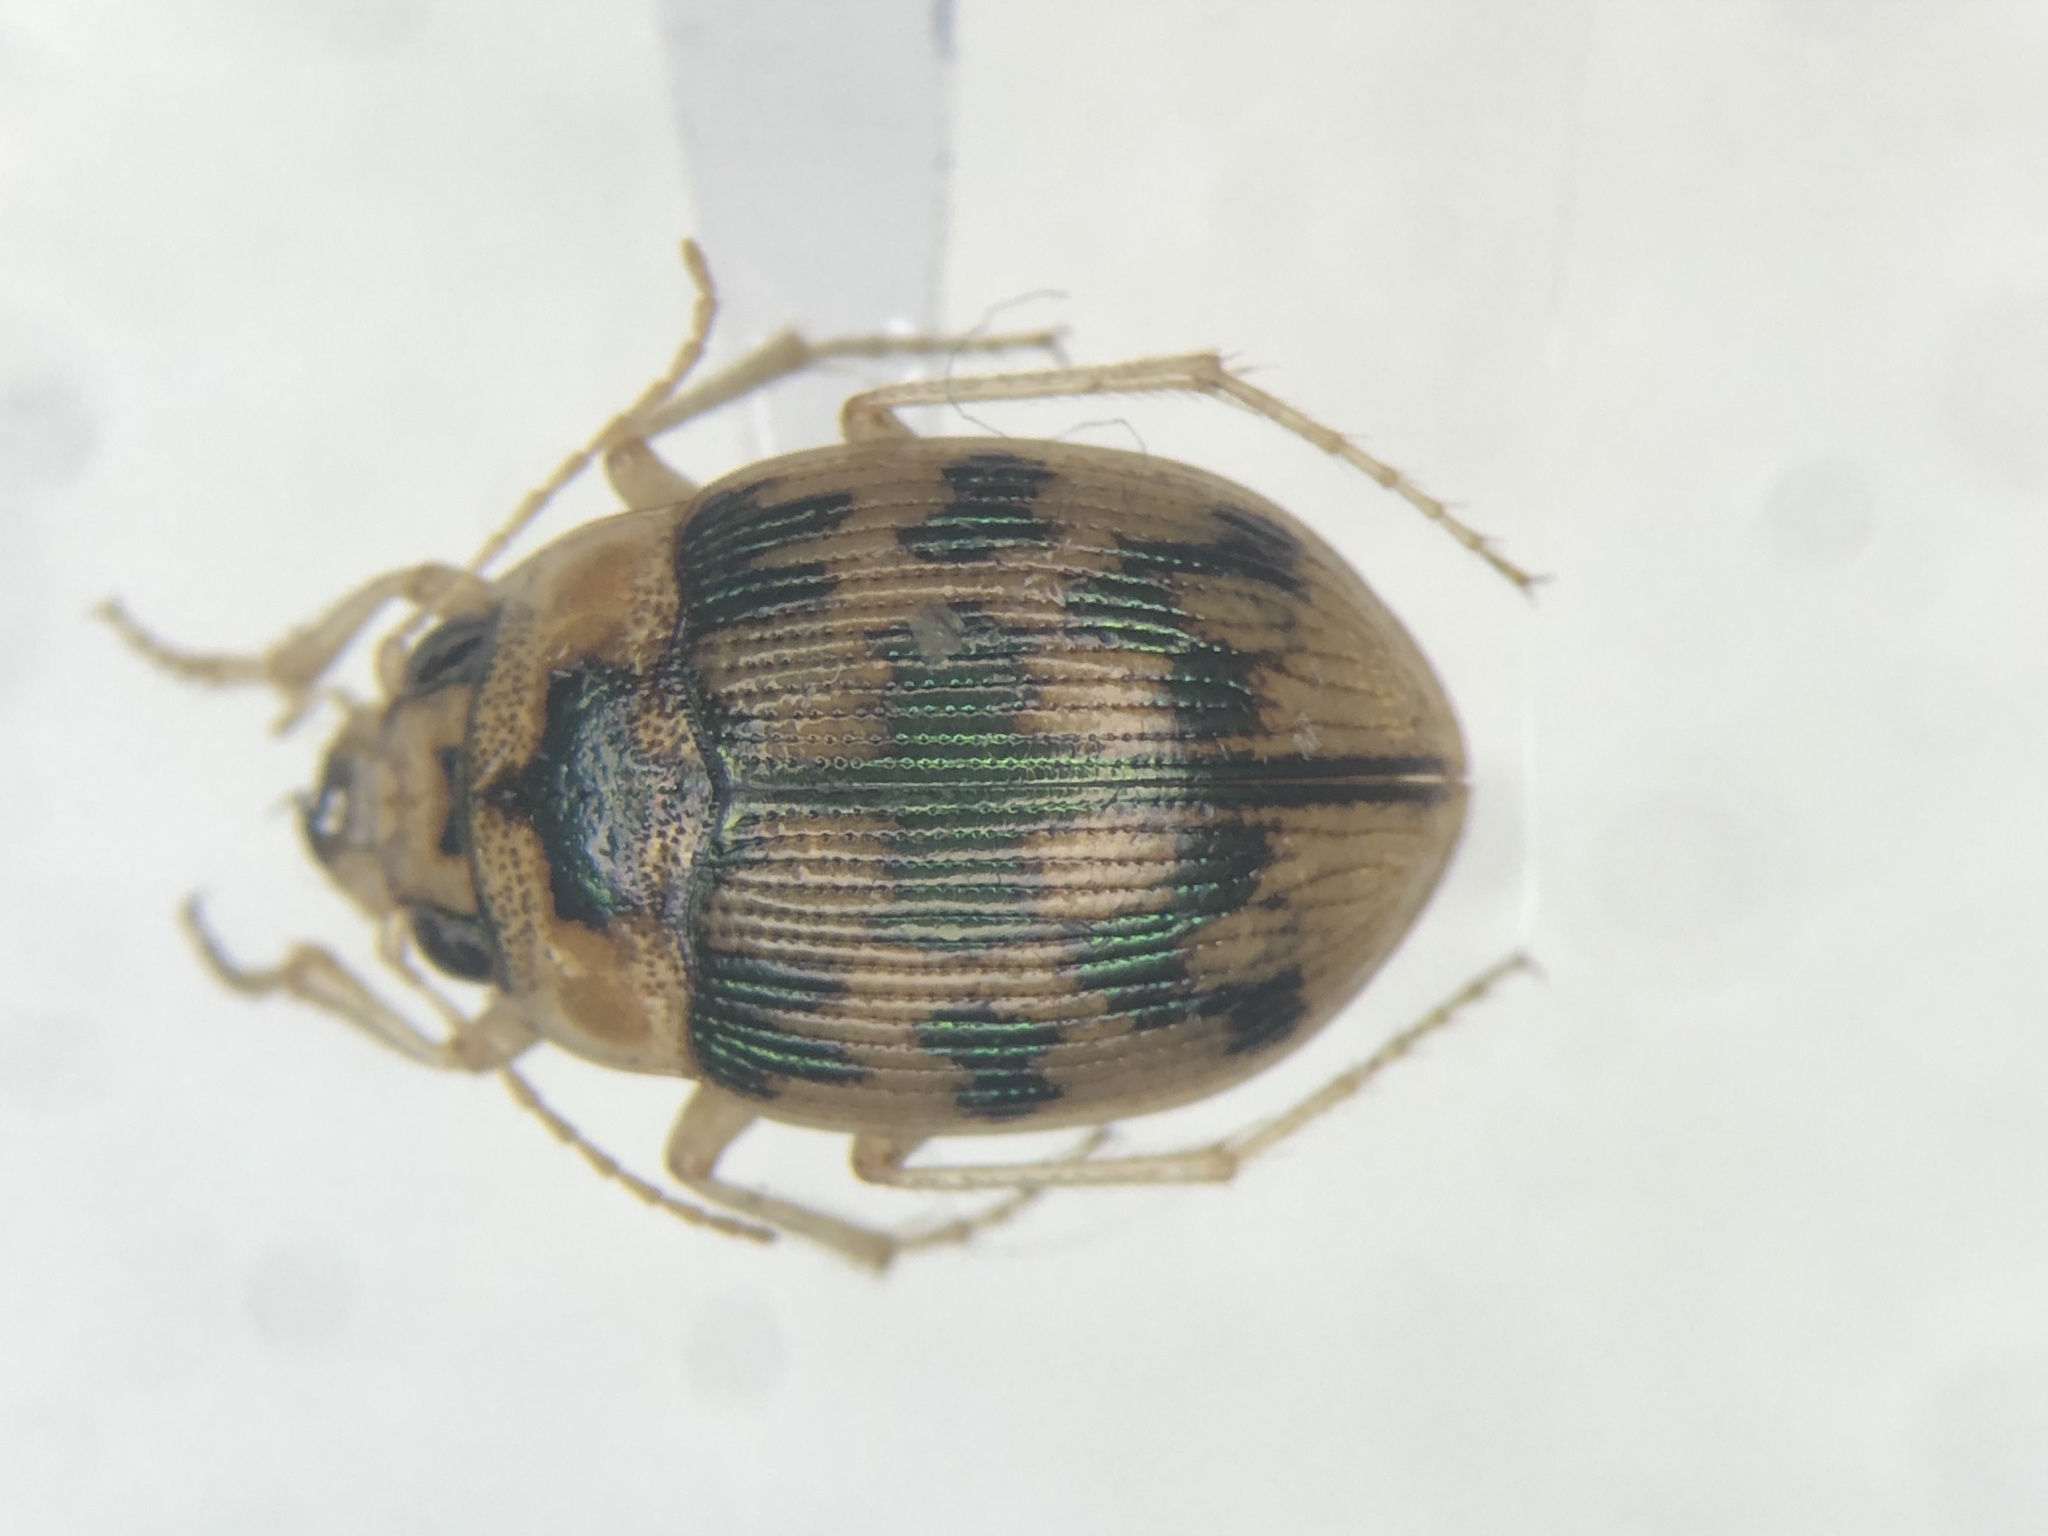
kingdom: Animalia
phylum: Arthropoda
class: Insecta
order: Coleoptera
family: Carabidae
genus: Omophron
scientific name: Omophron tessellatum
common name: Mosaic round sand beetle
